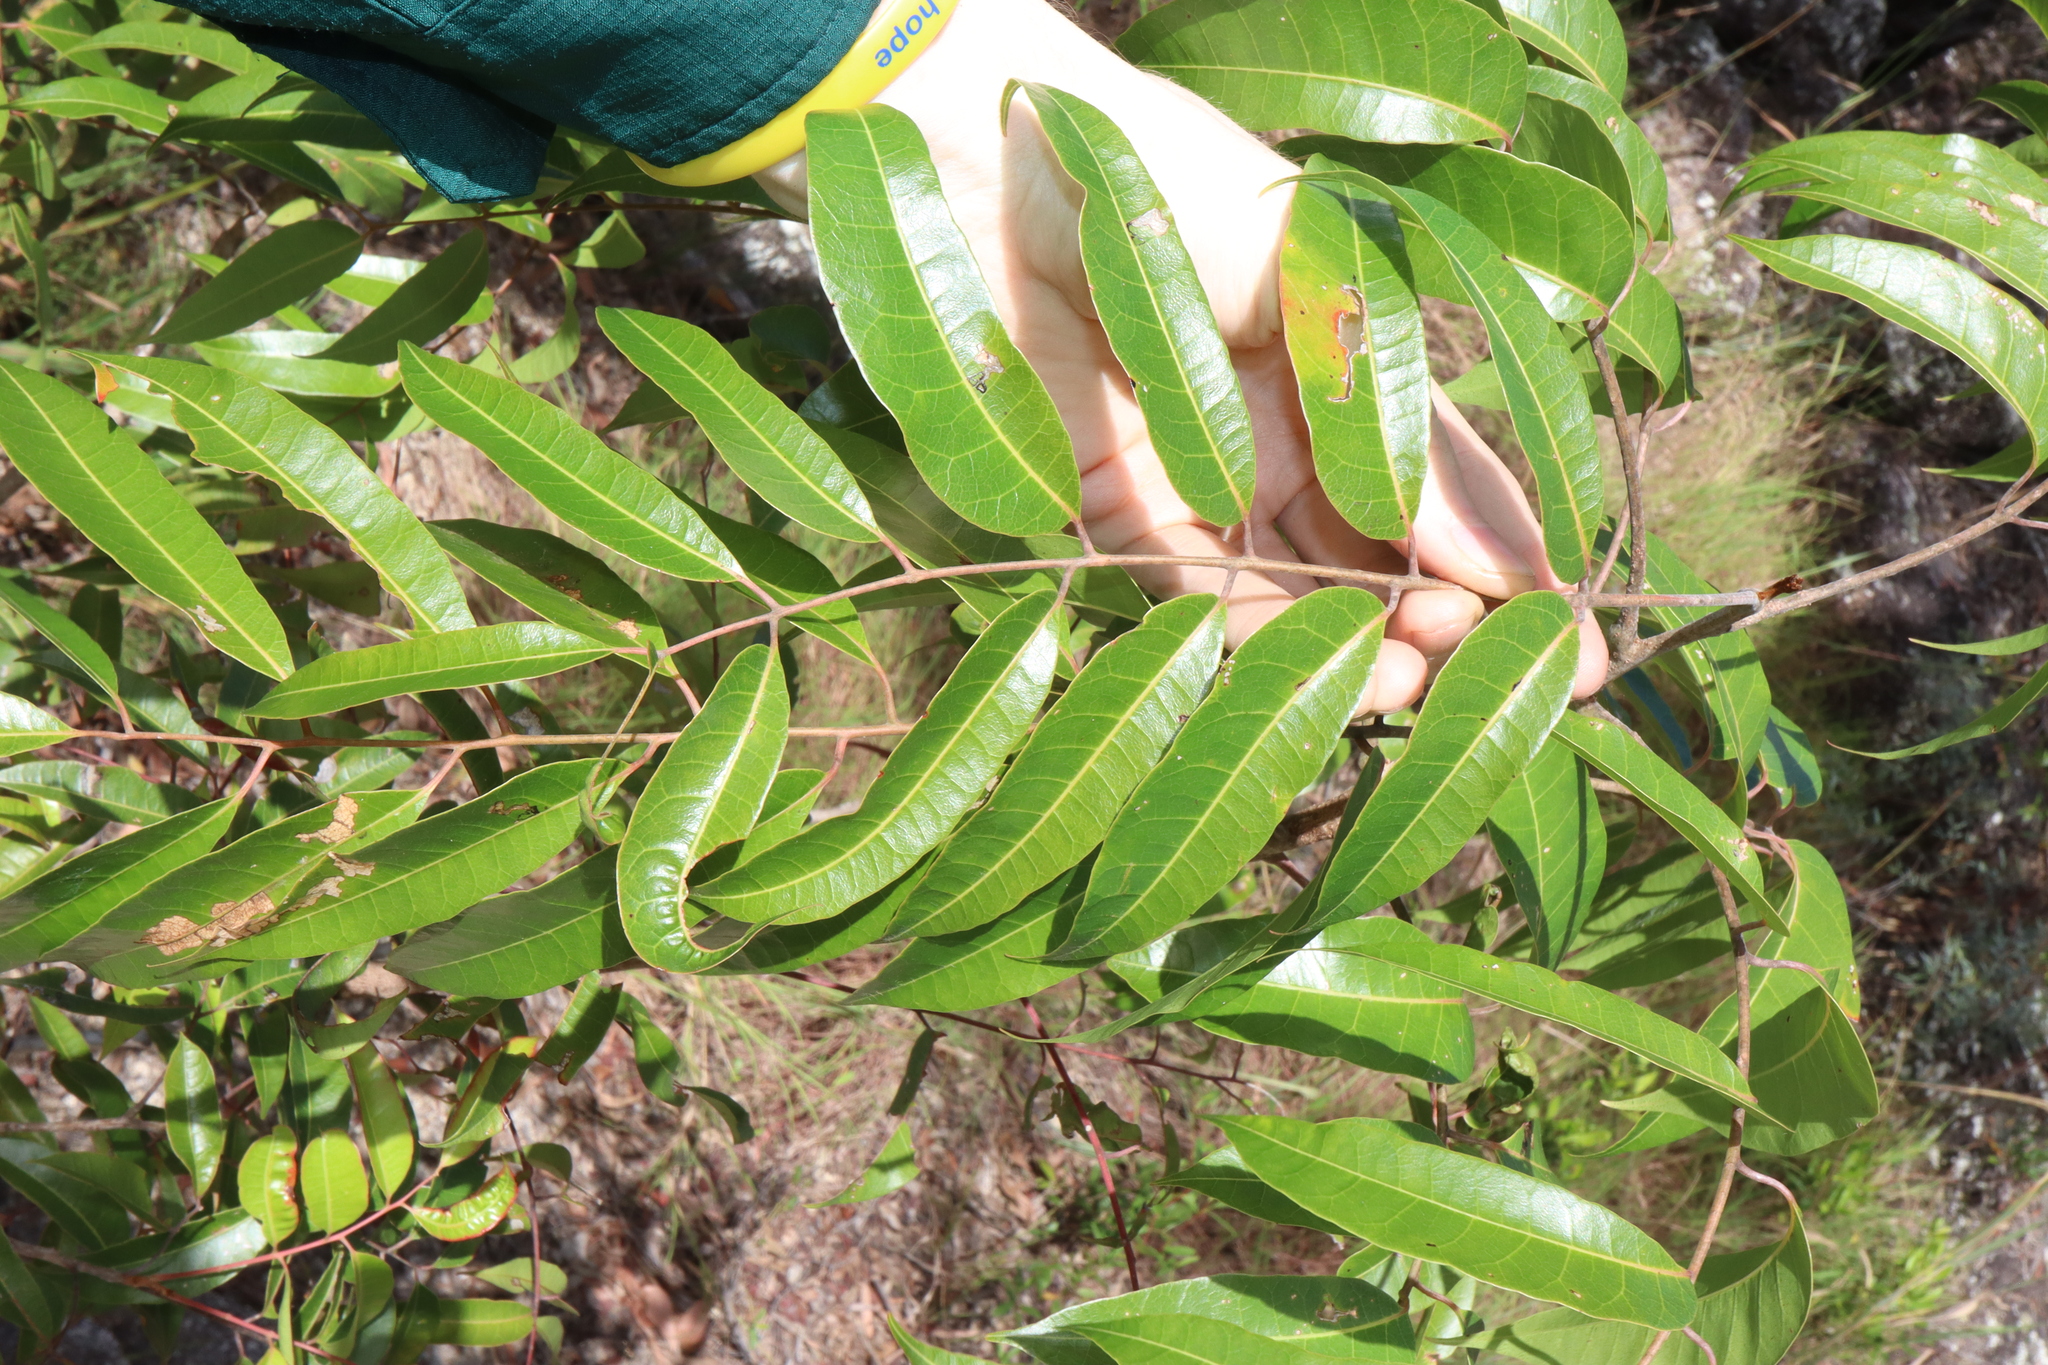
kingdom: Plantae
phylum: Tracheophyta
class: Magnoliopsida
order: Sapindales
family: Anacardiaceae
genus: Euroschinus
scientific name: Euroschinus falcatus
